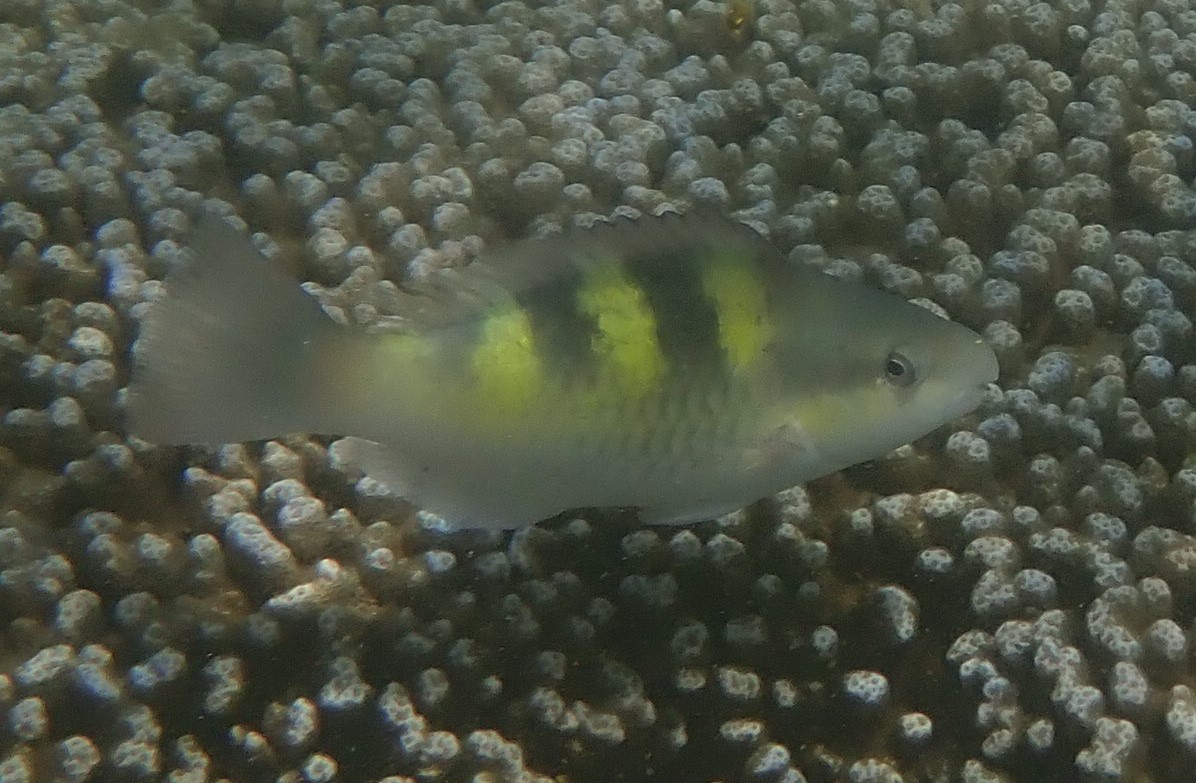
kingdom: Animalia
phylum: Chordata
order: Perciformes
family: Scaridae
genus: Scarus
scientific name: Scarus scaber
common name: Dusky-capped parrotfish
